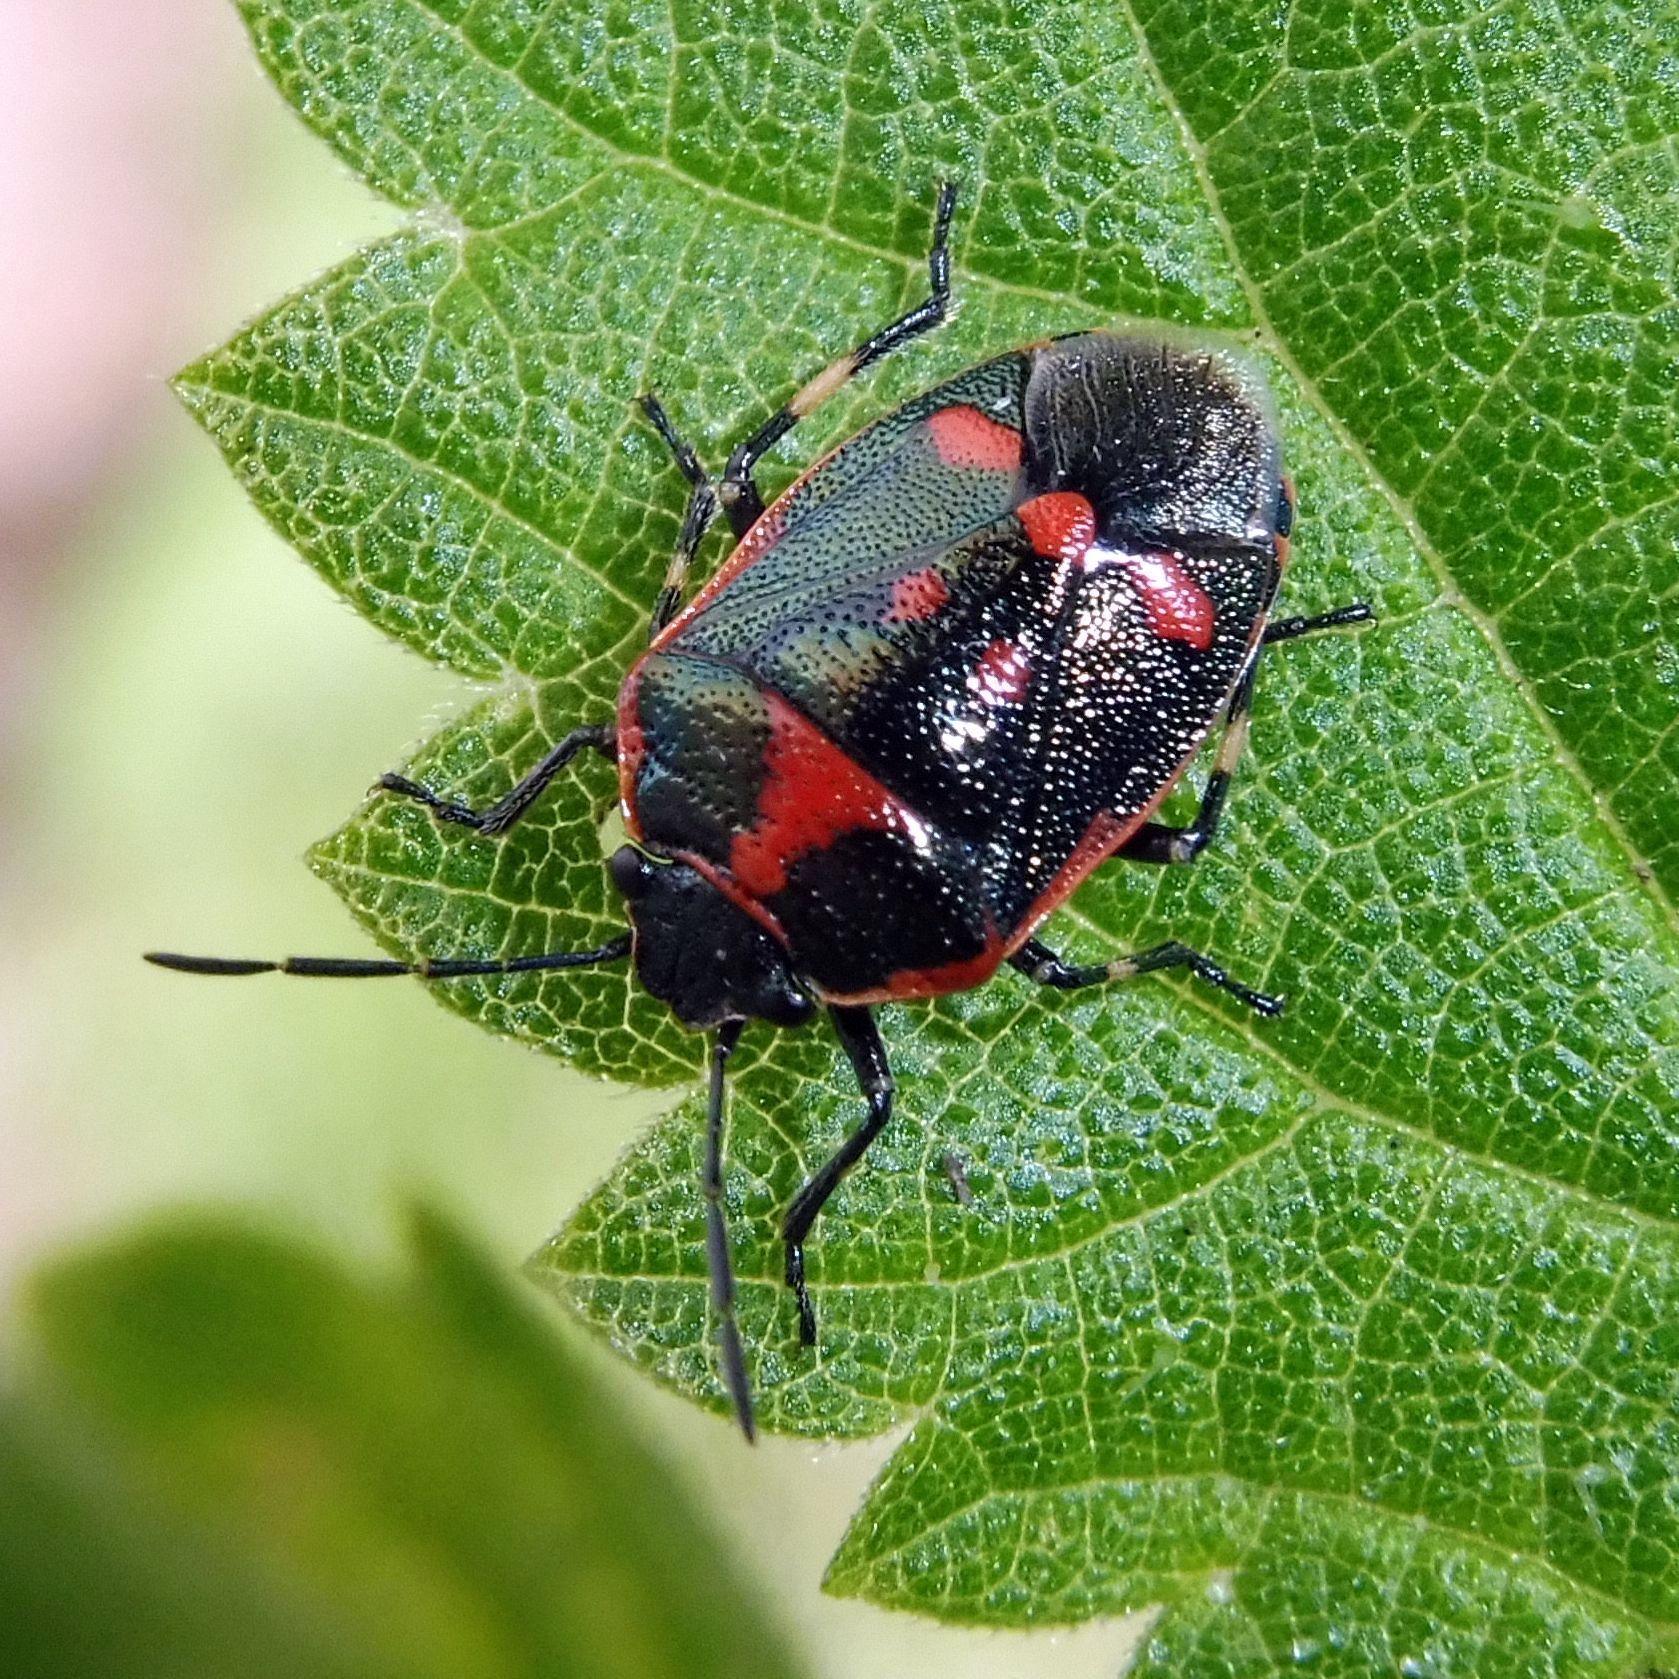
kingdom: Animalia
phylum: Arthropoda
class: Insecta
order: Hemiptera
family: Pentatomidae
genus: Eurydema
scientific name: Eurydema oleracea
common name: Cabbage bug
